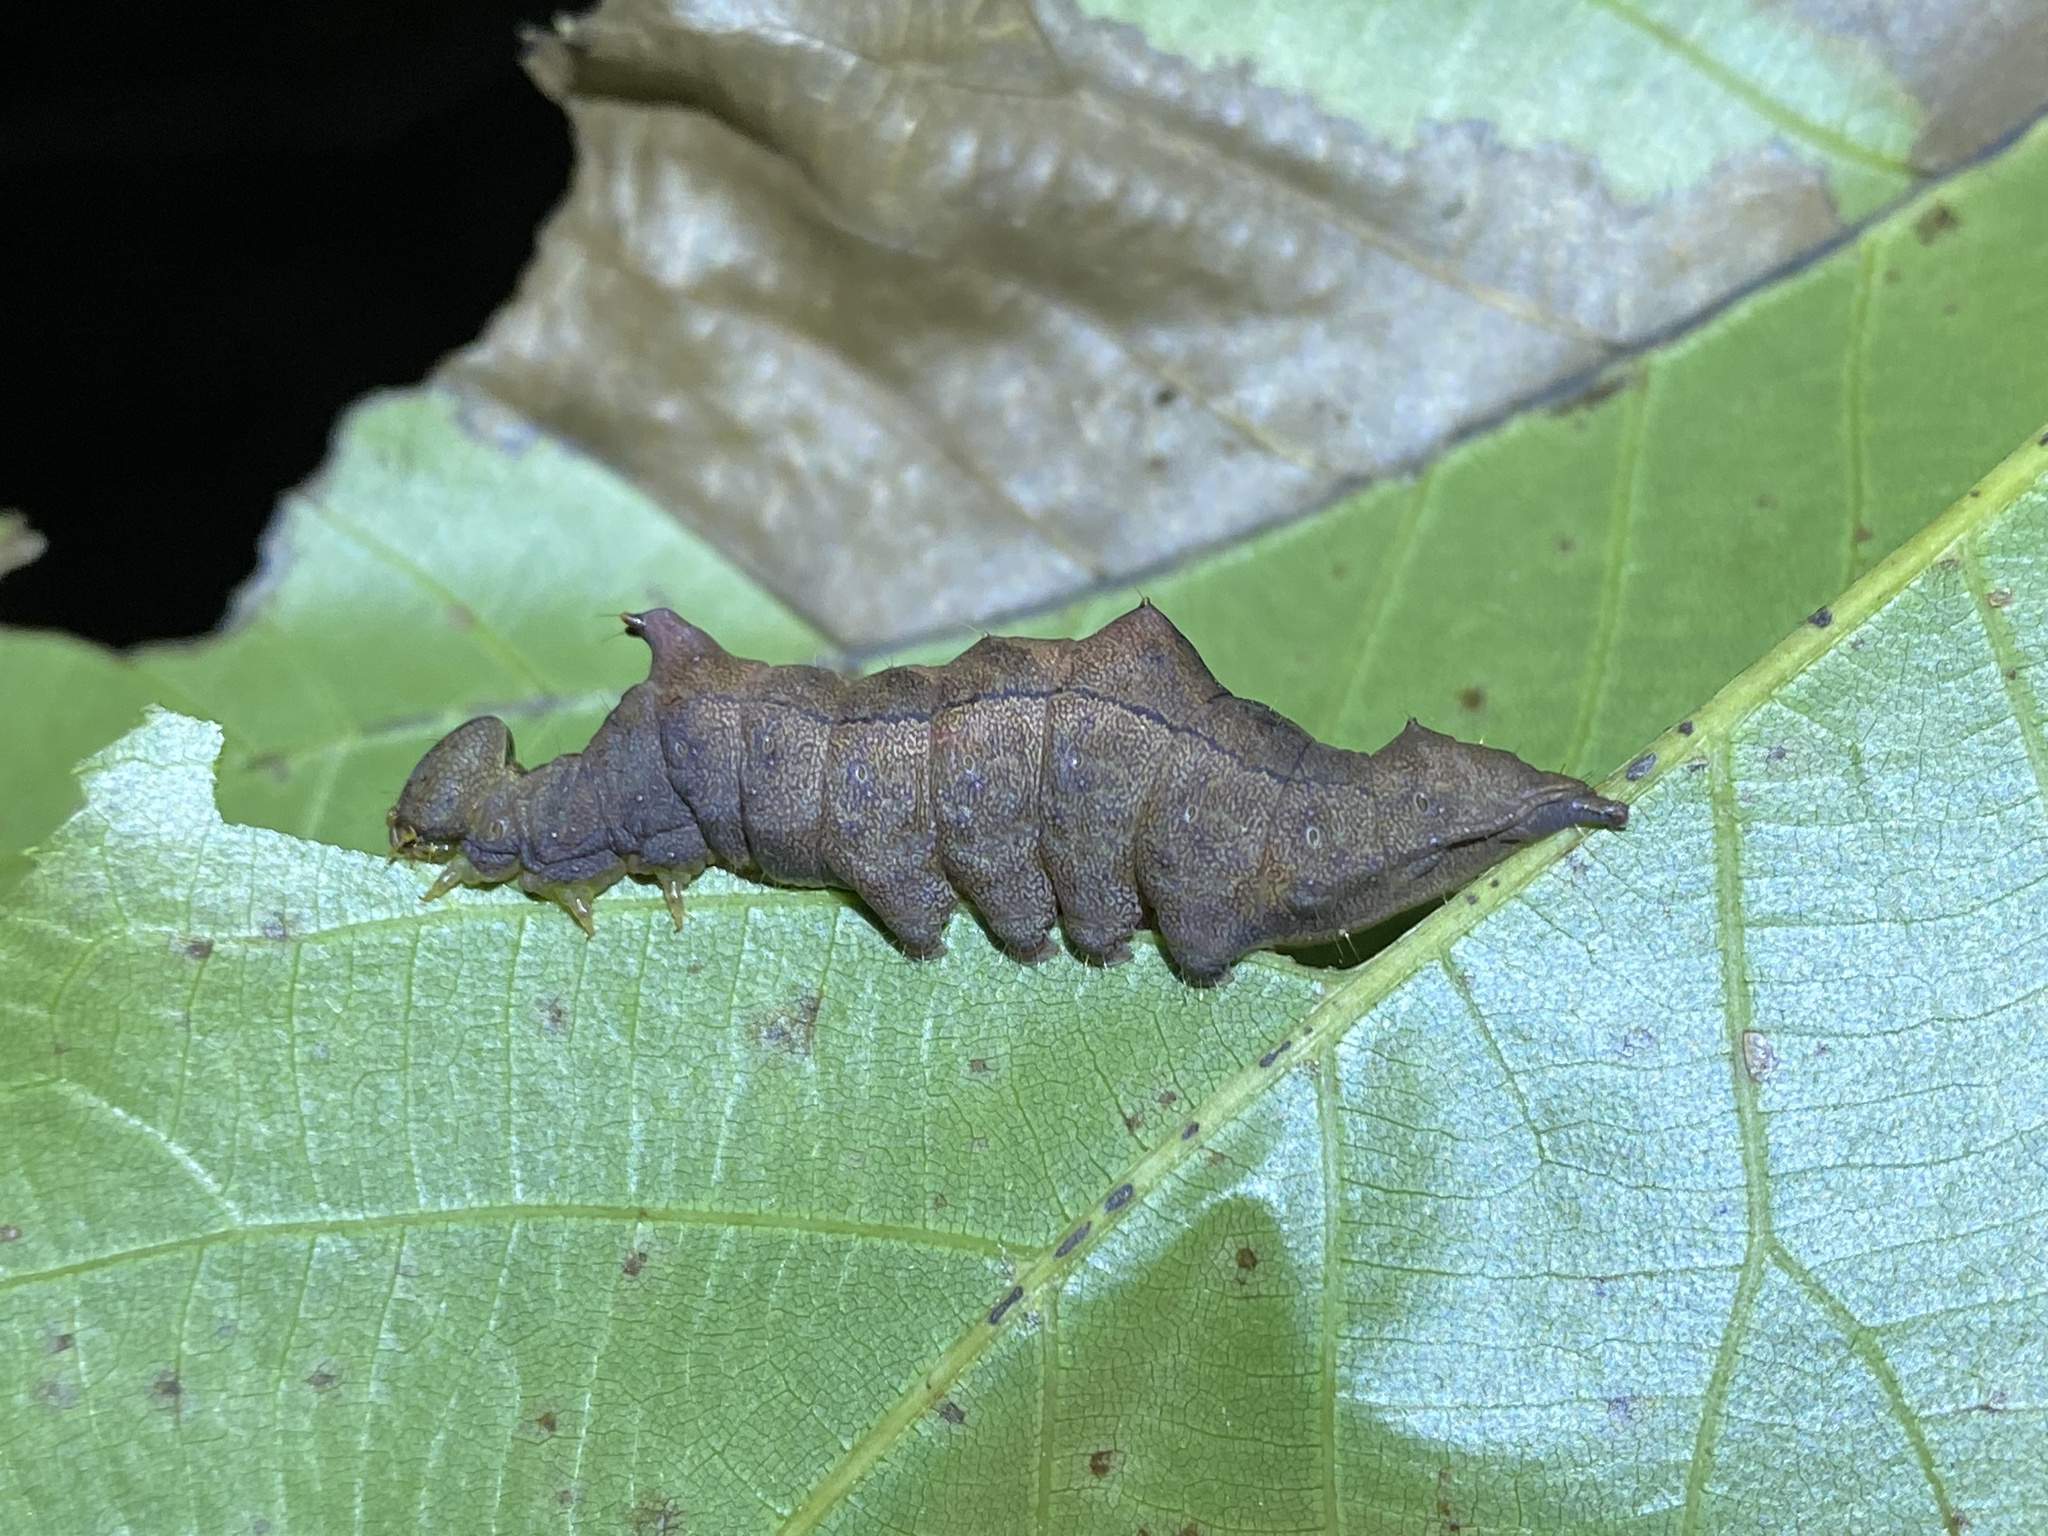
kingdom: Animalia
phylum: Arthropoda
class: Insecta
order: Lepidoptera
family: Notodontidae
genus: Schizura
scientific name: Schizura
